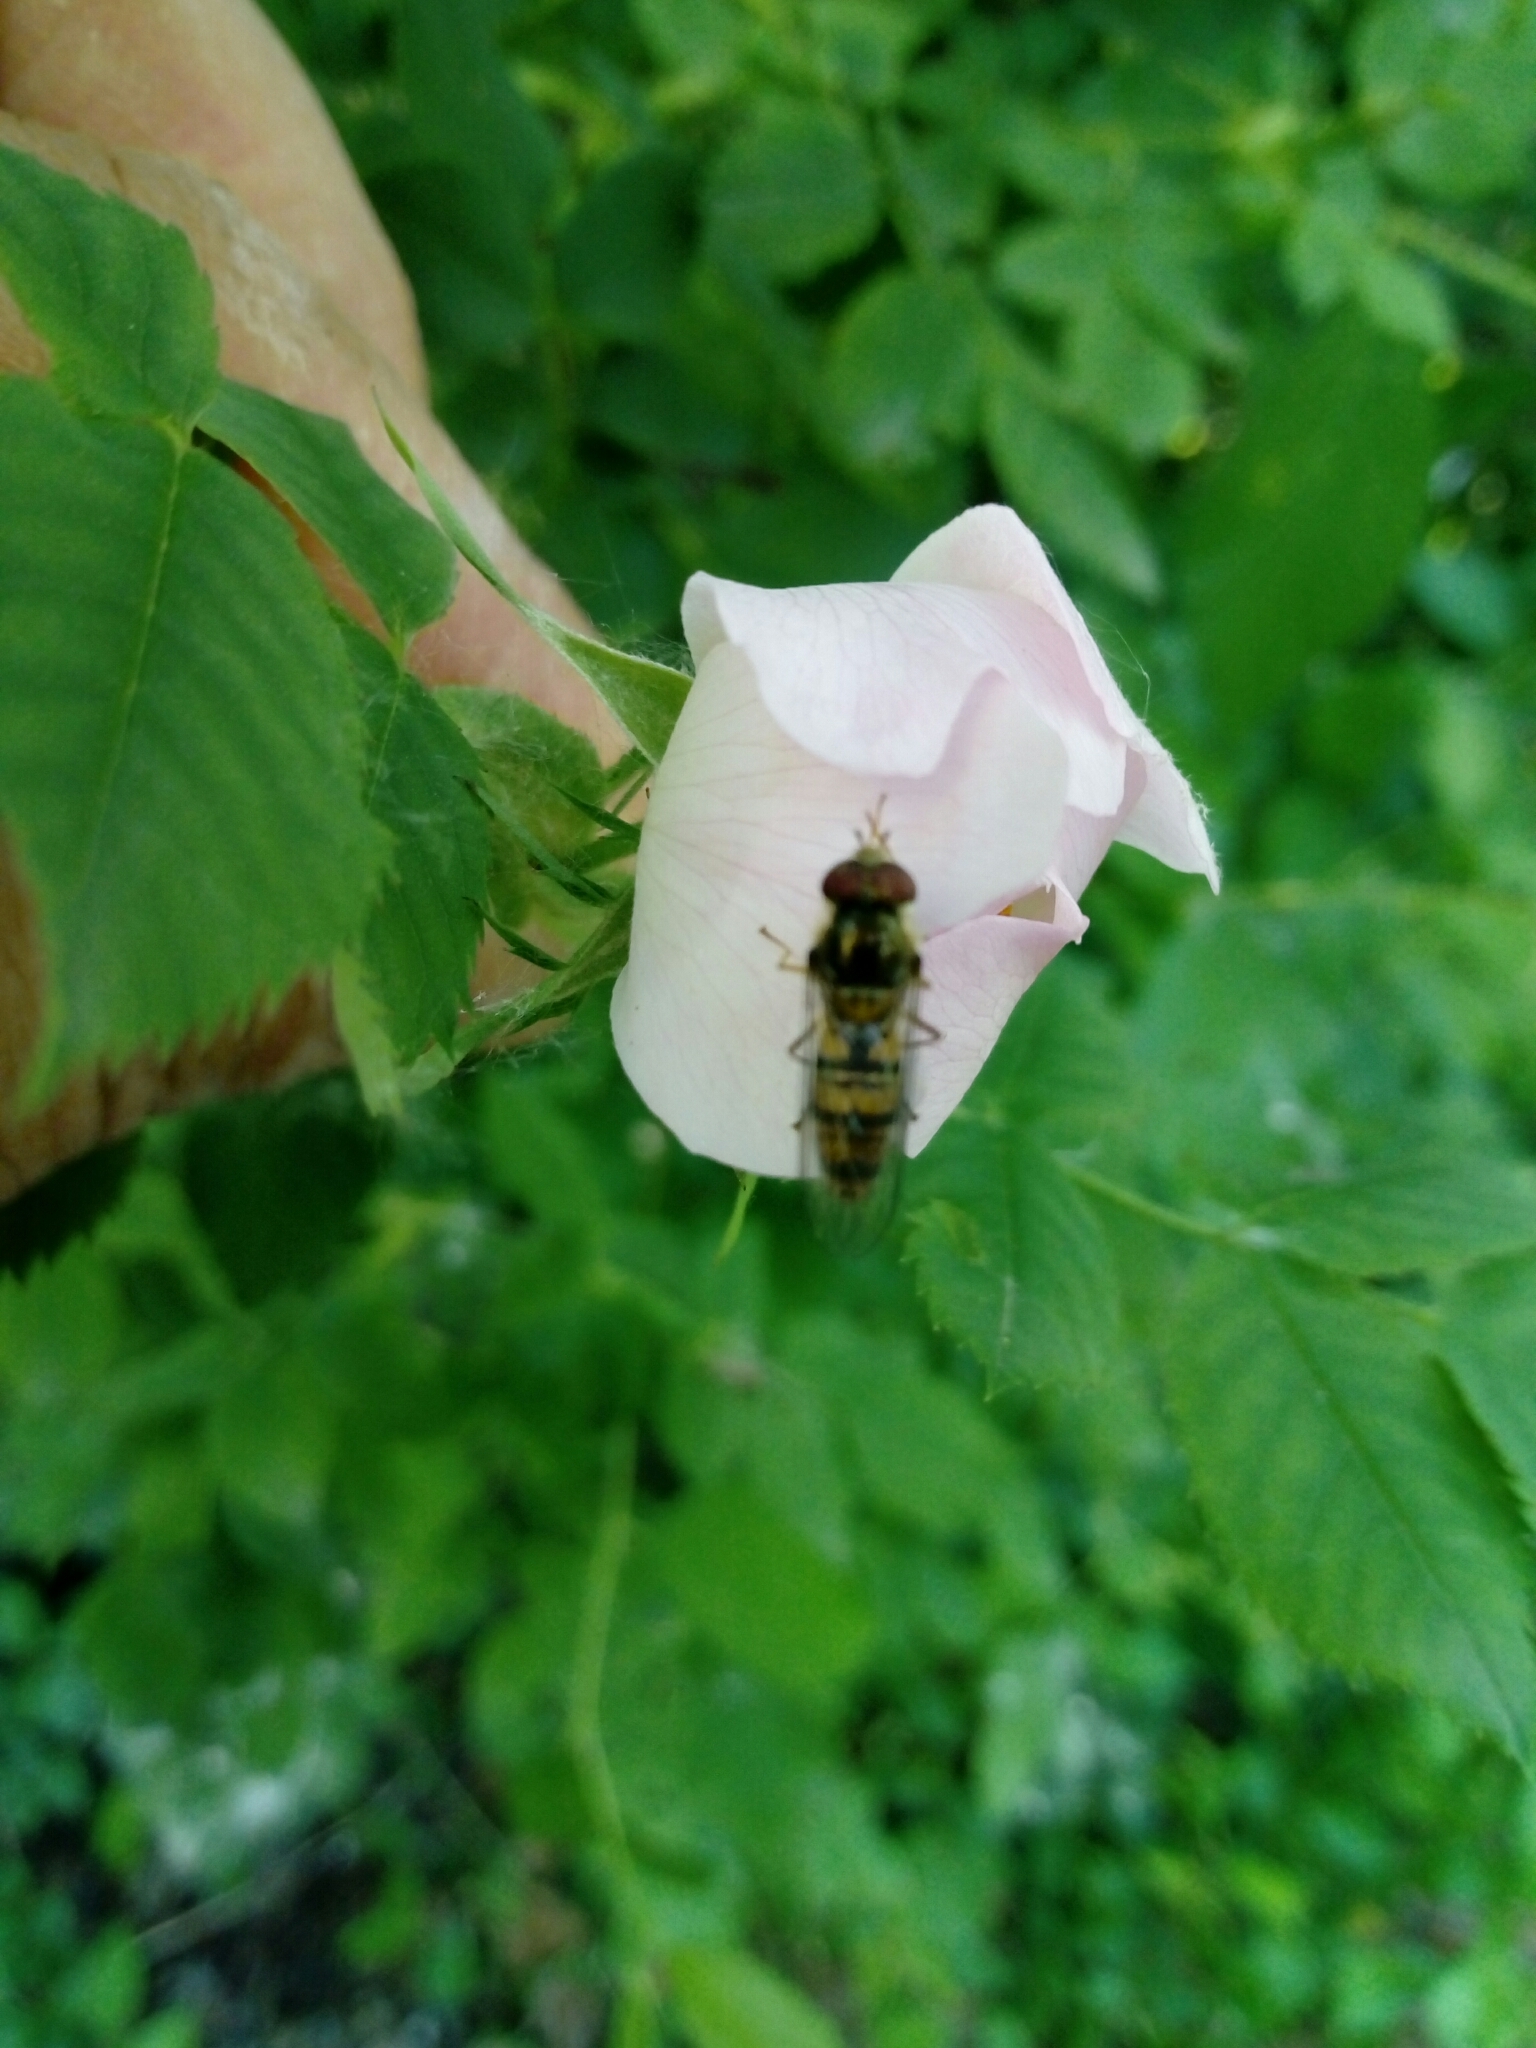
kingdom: Animalia
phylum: Arthropoda
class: Insecta
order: Diptera
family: Syrphidae
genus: Episyrphus
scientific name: Episyrphus balteatus
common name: Marmalade hoverfly
